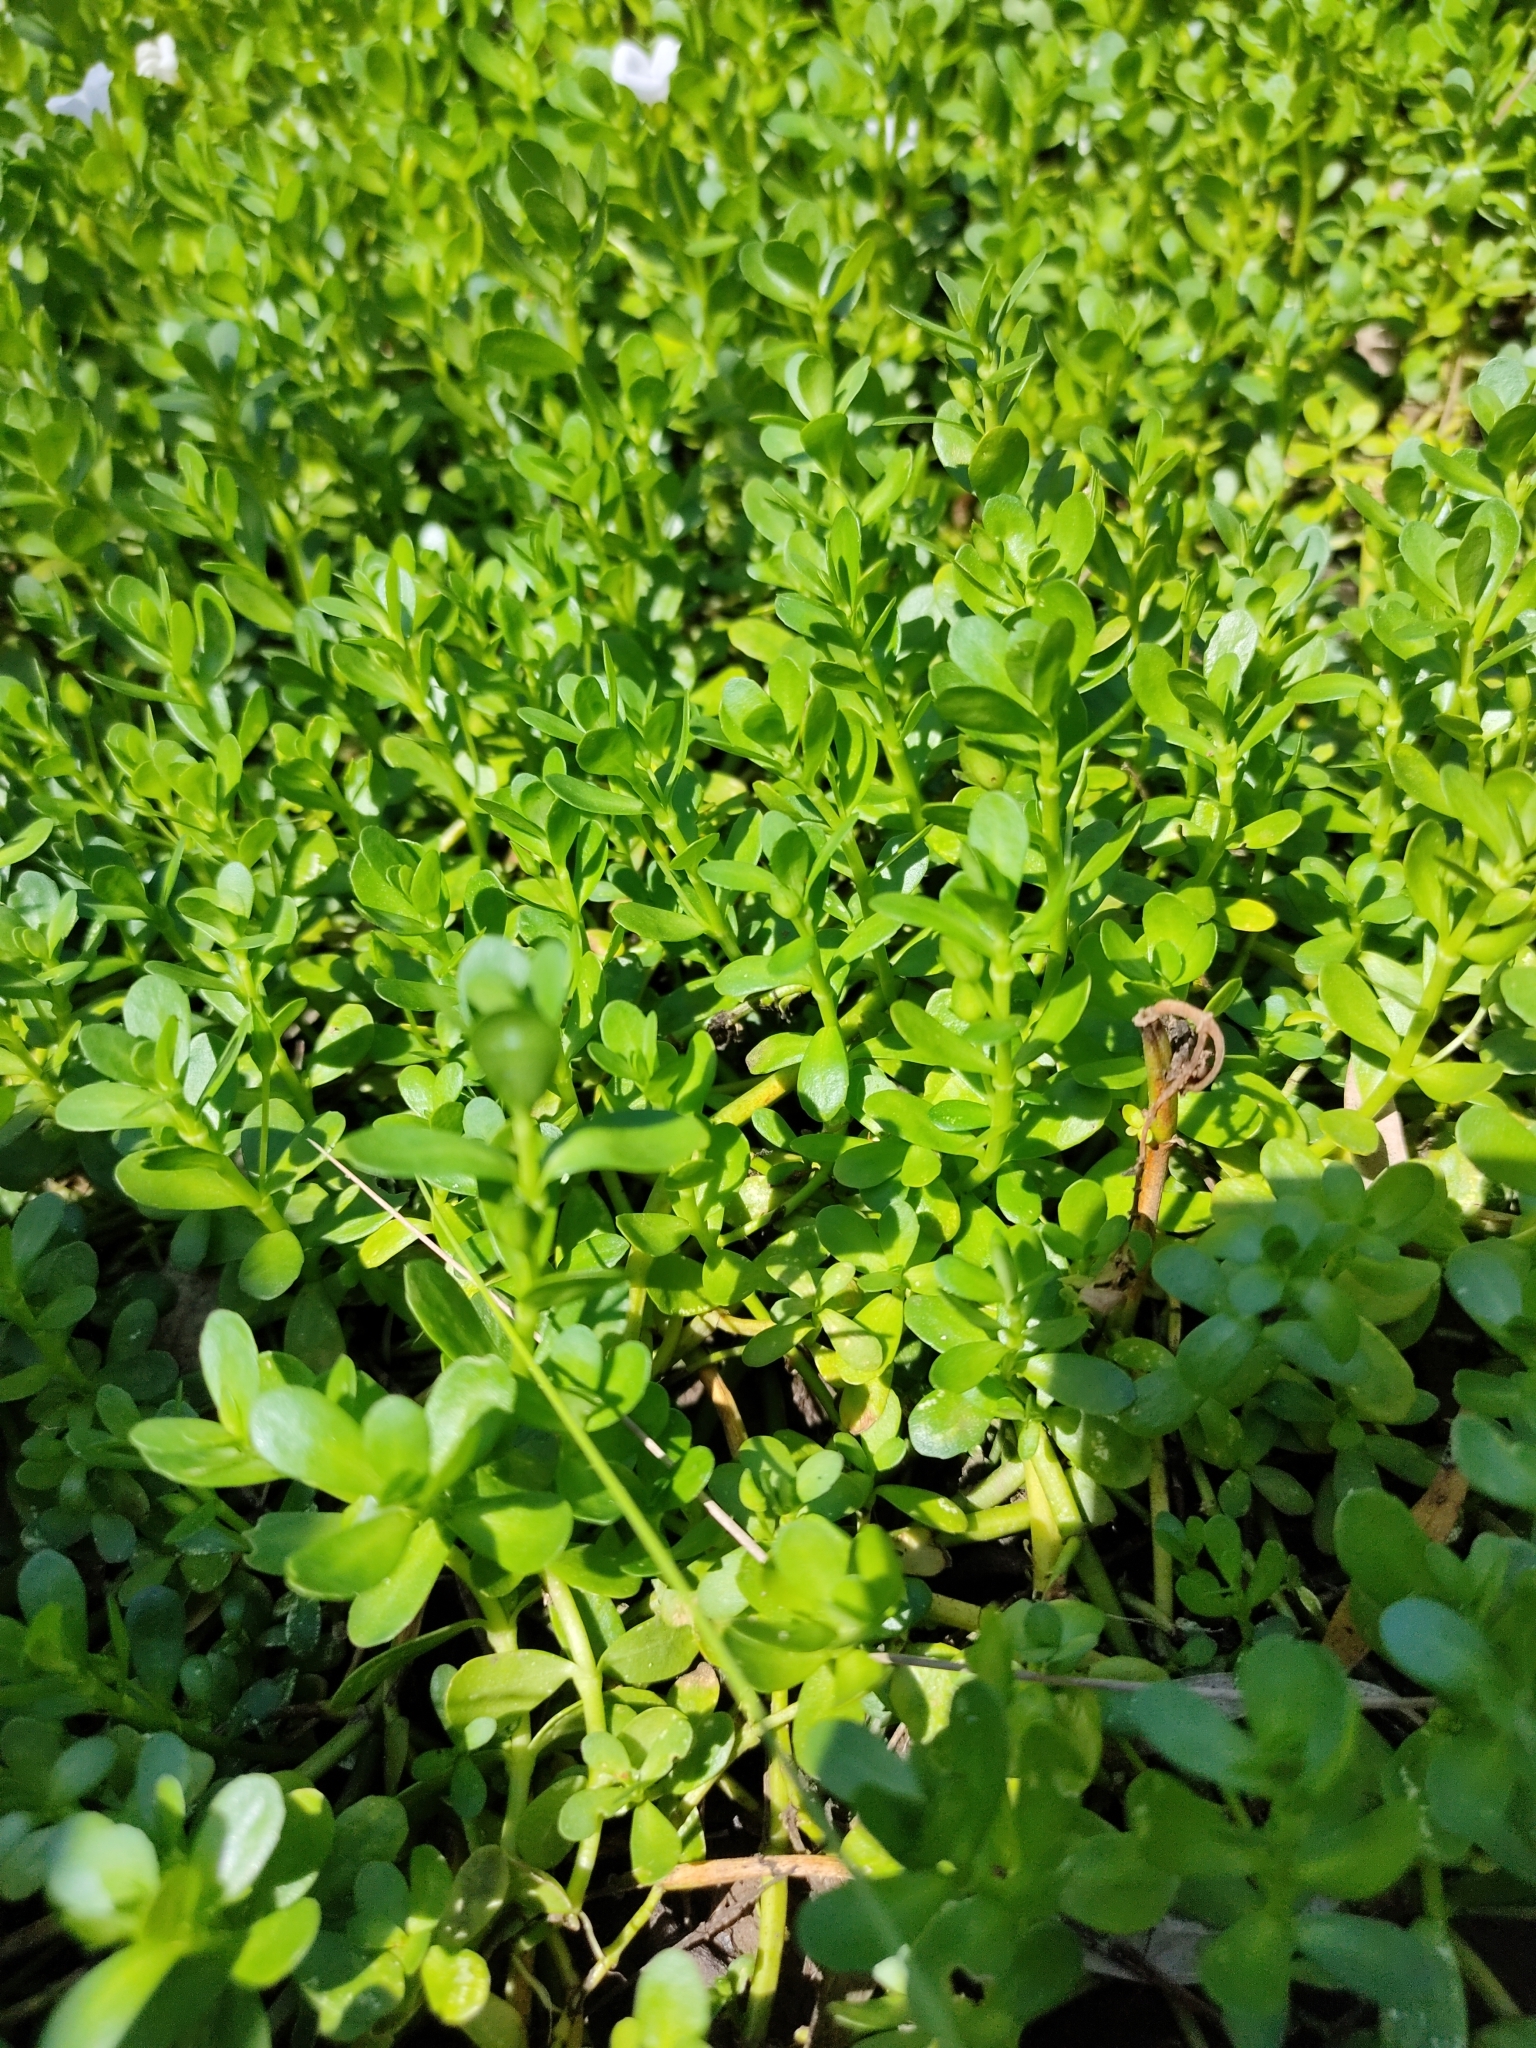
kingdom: Plantae
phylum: Tracheophyta
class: Magnoliopsida
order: Lamiales
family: Plantaginaceae
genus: Bacopa
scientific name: Bacopa monnieri
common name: Indian-pennywort
